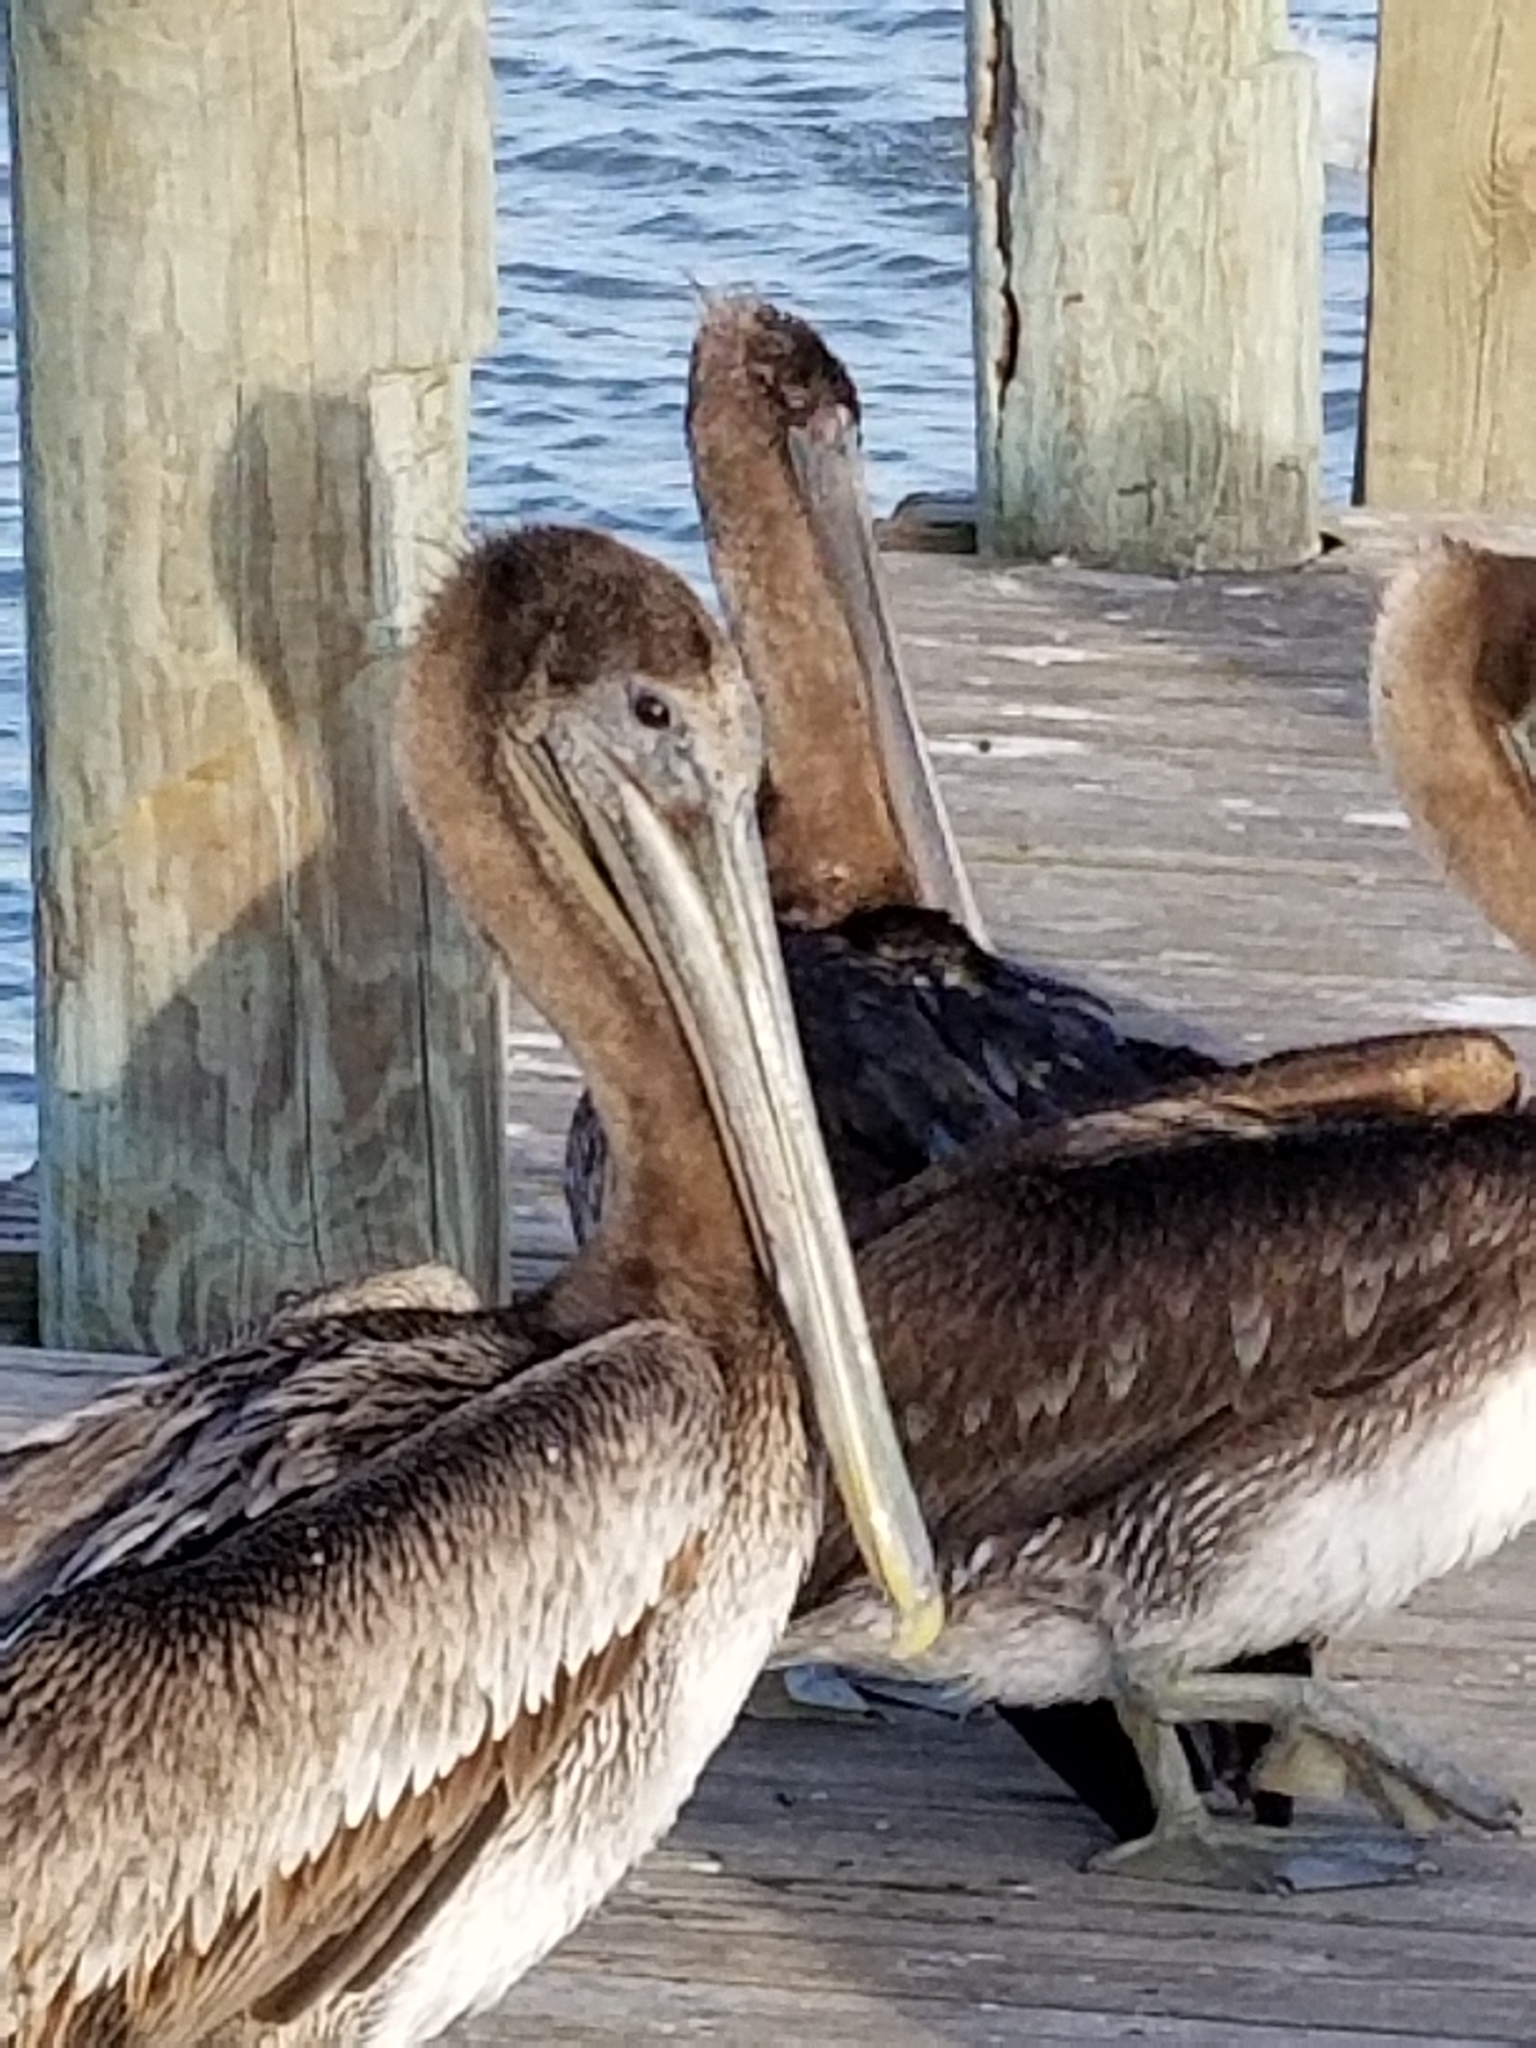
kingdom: Animalia
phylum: Chordata
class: Aves
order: Pelecaniformes
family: Pelecanidae
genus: Pelecanus
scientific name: Pelecanus occidentalis
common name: Brown pelican
